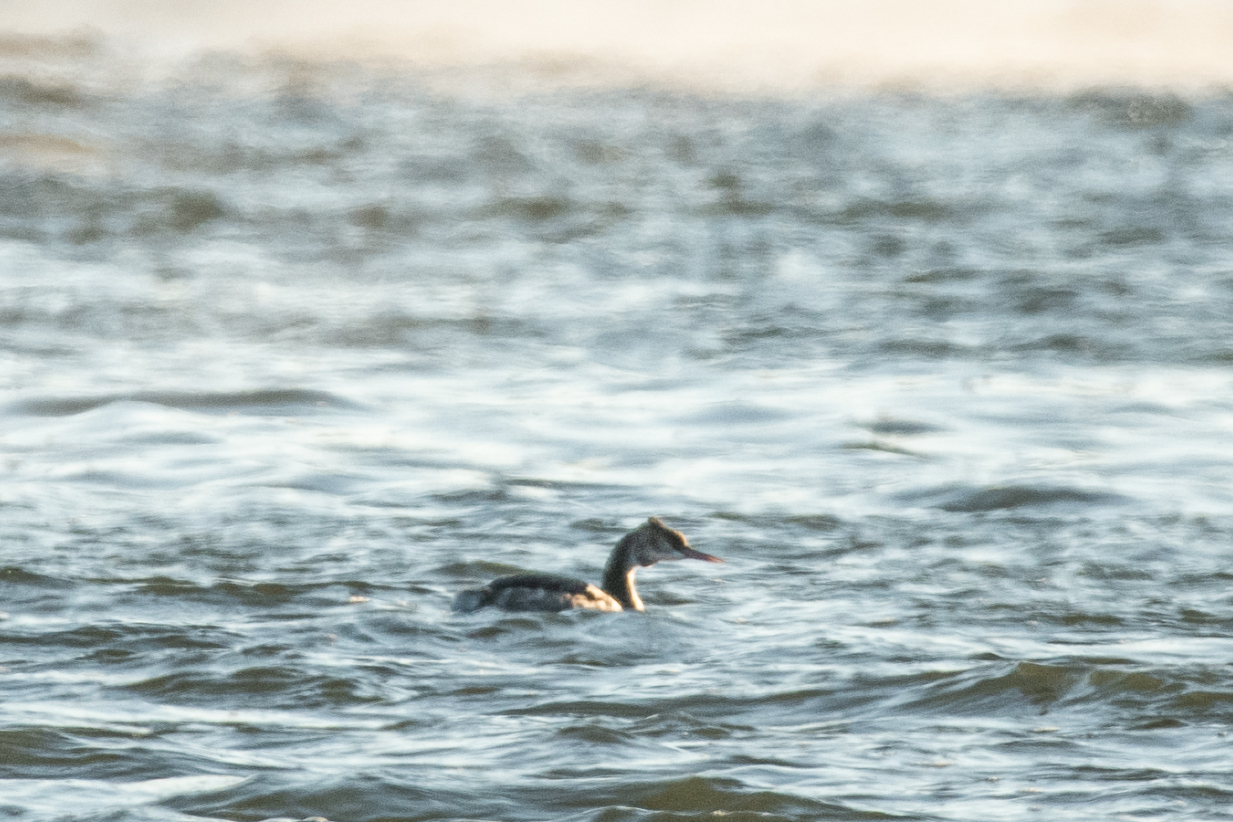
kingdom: Animalia
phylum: Chordata
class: Aves
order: Podicipediformes
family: Podicipedidae
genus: Podiceps
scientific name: Podiceps cristatus
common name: Great crested grebe
